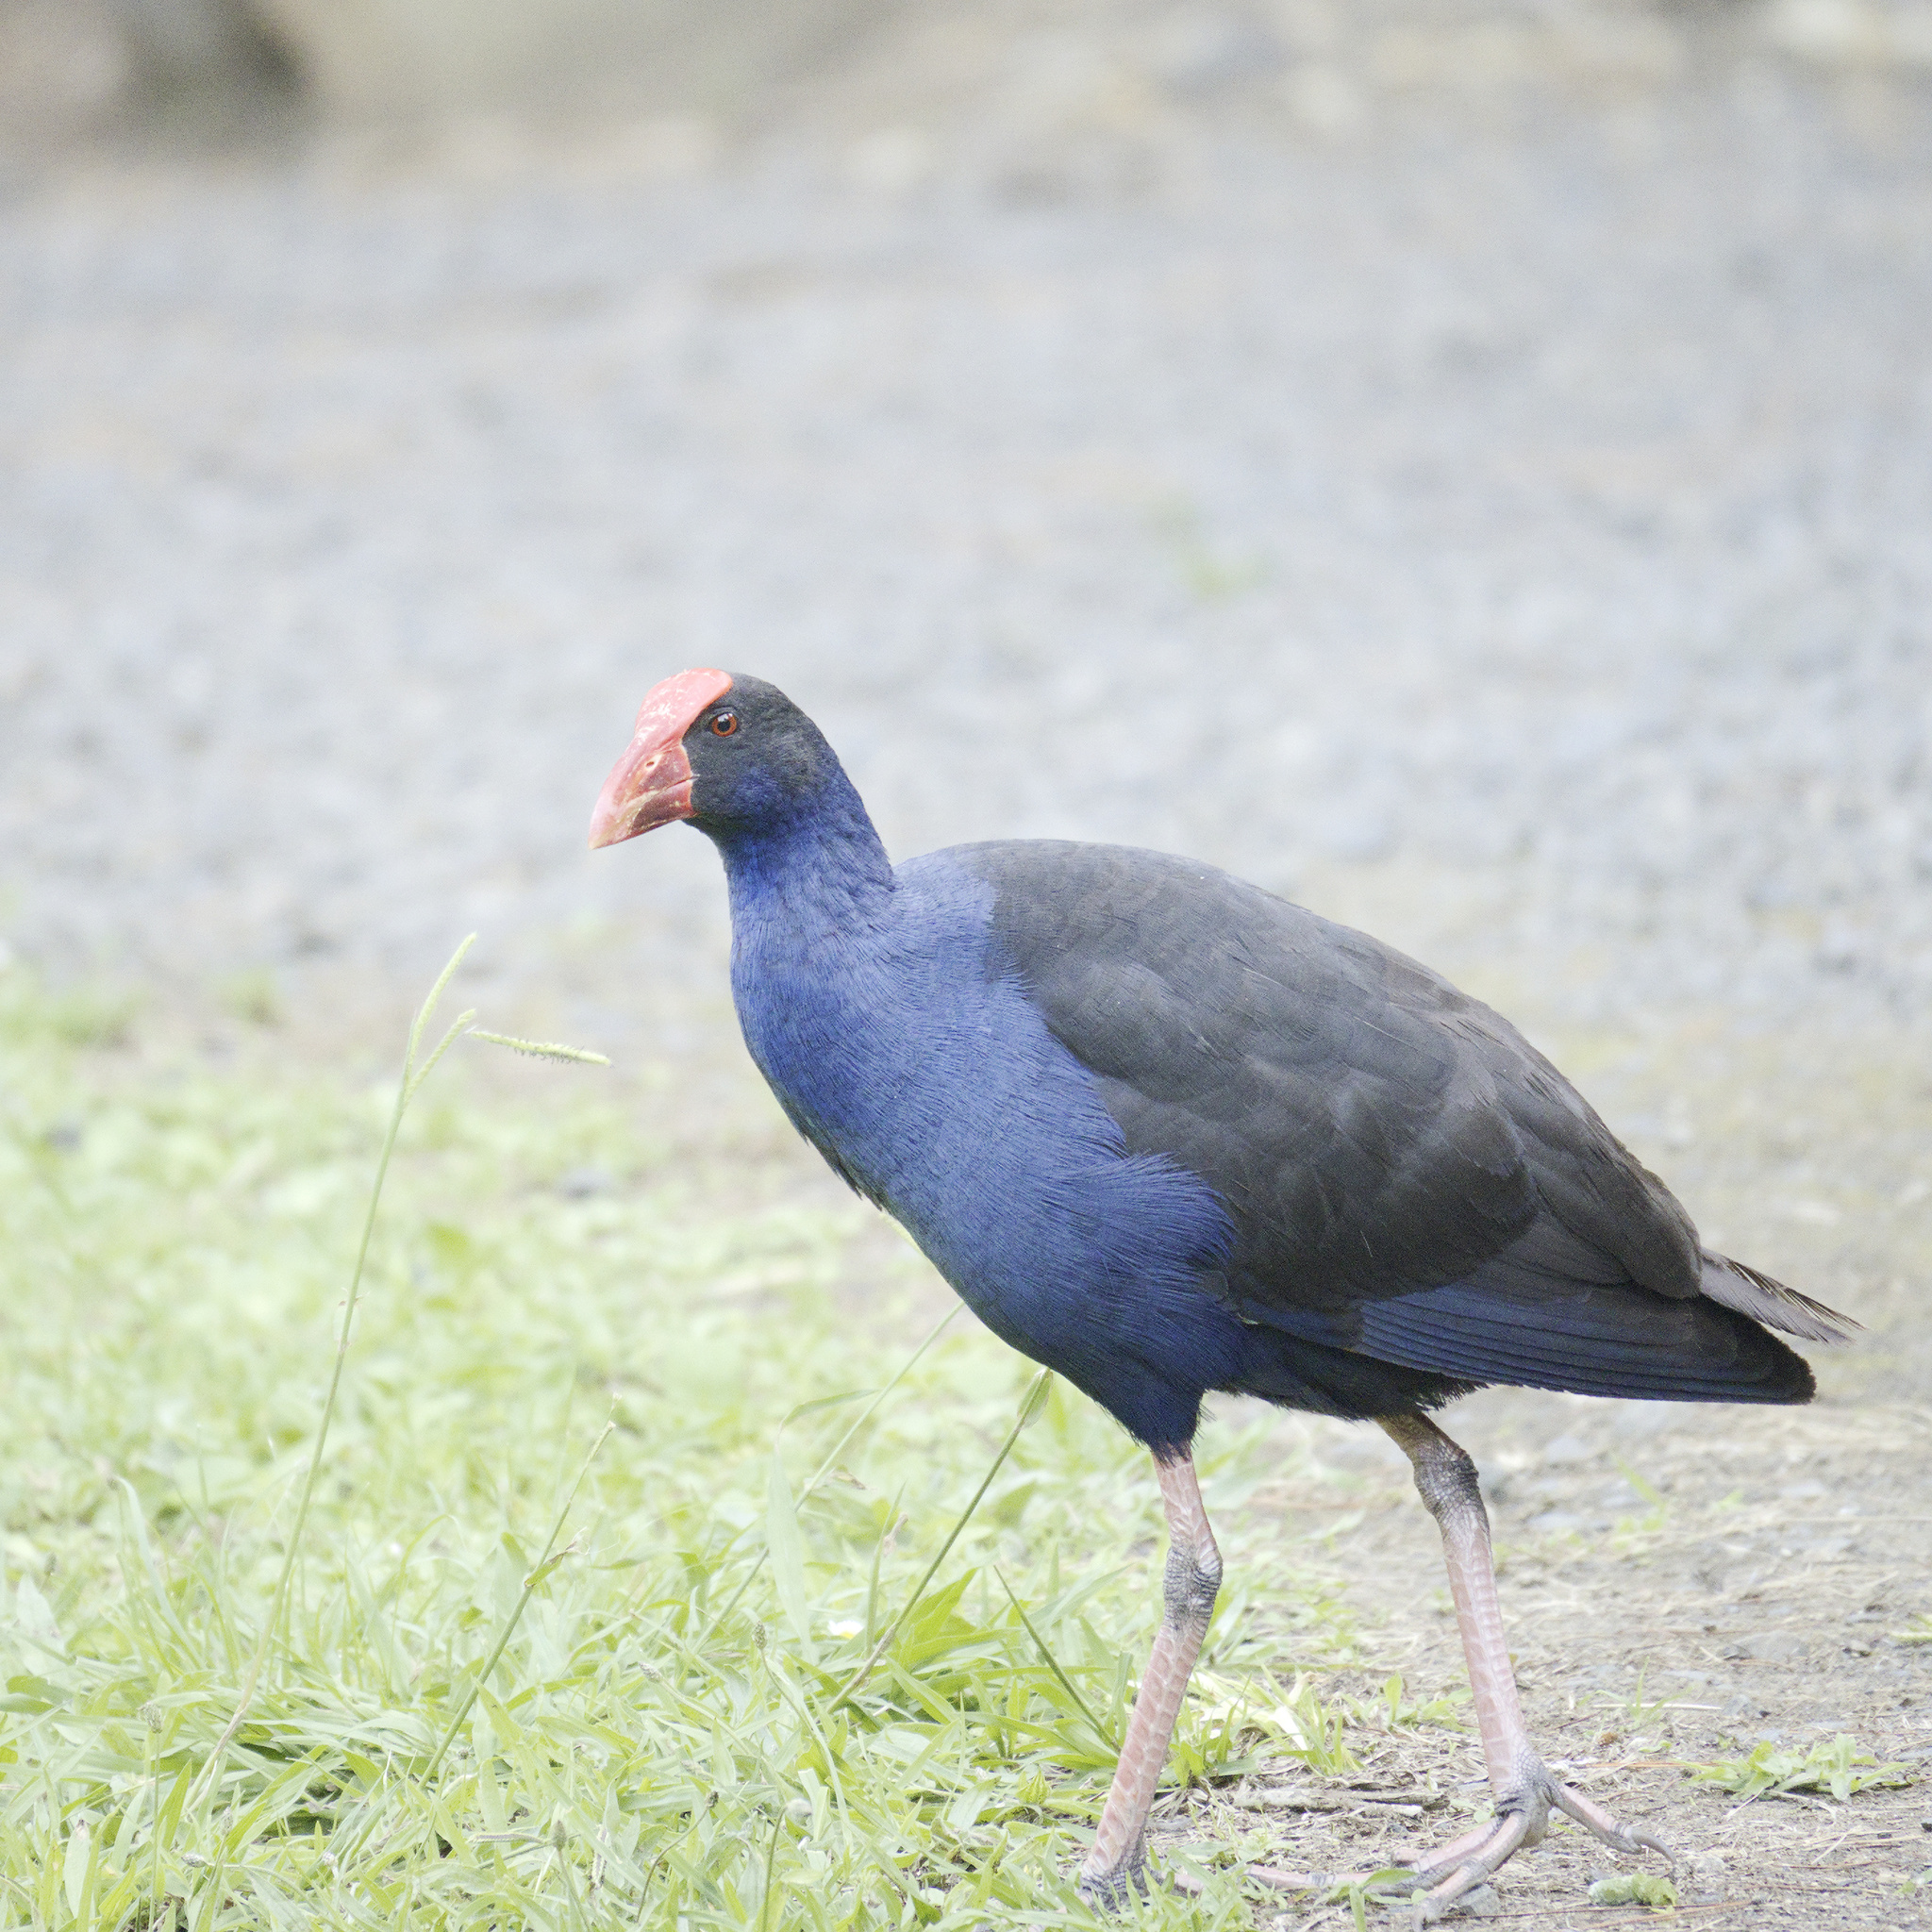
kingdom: Animalia
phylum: Chordata
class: Aves
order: Gruiformes
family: Rallidae
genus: Porphyrio
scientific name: Porphyrio melanotus
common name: Australasian swamphen
